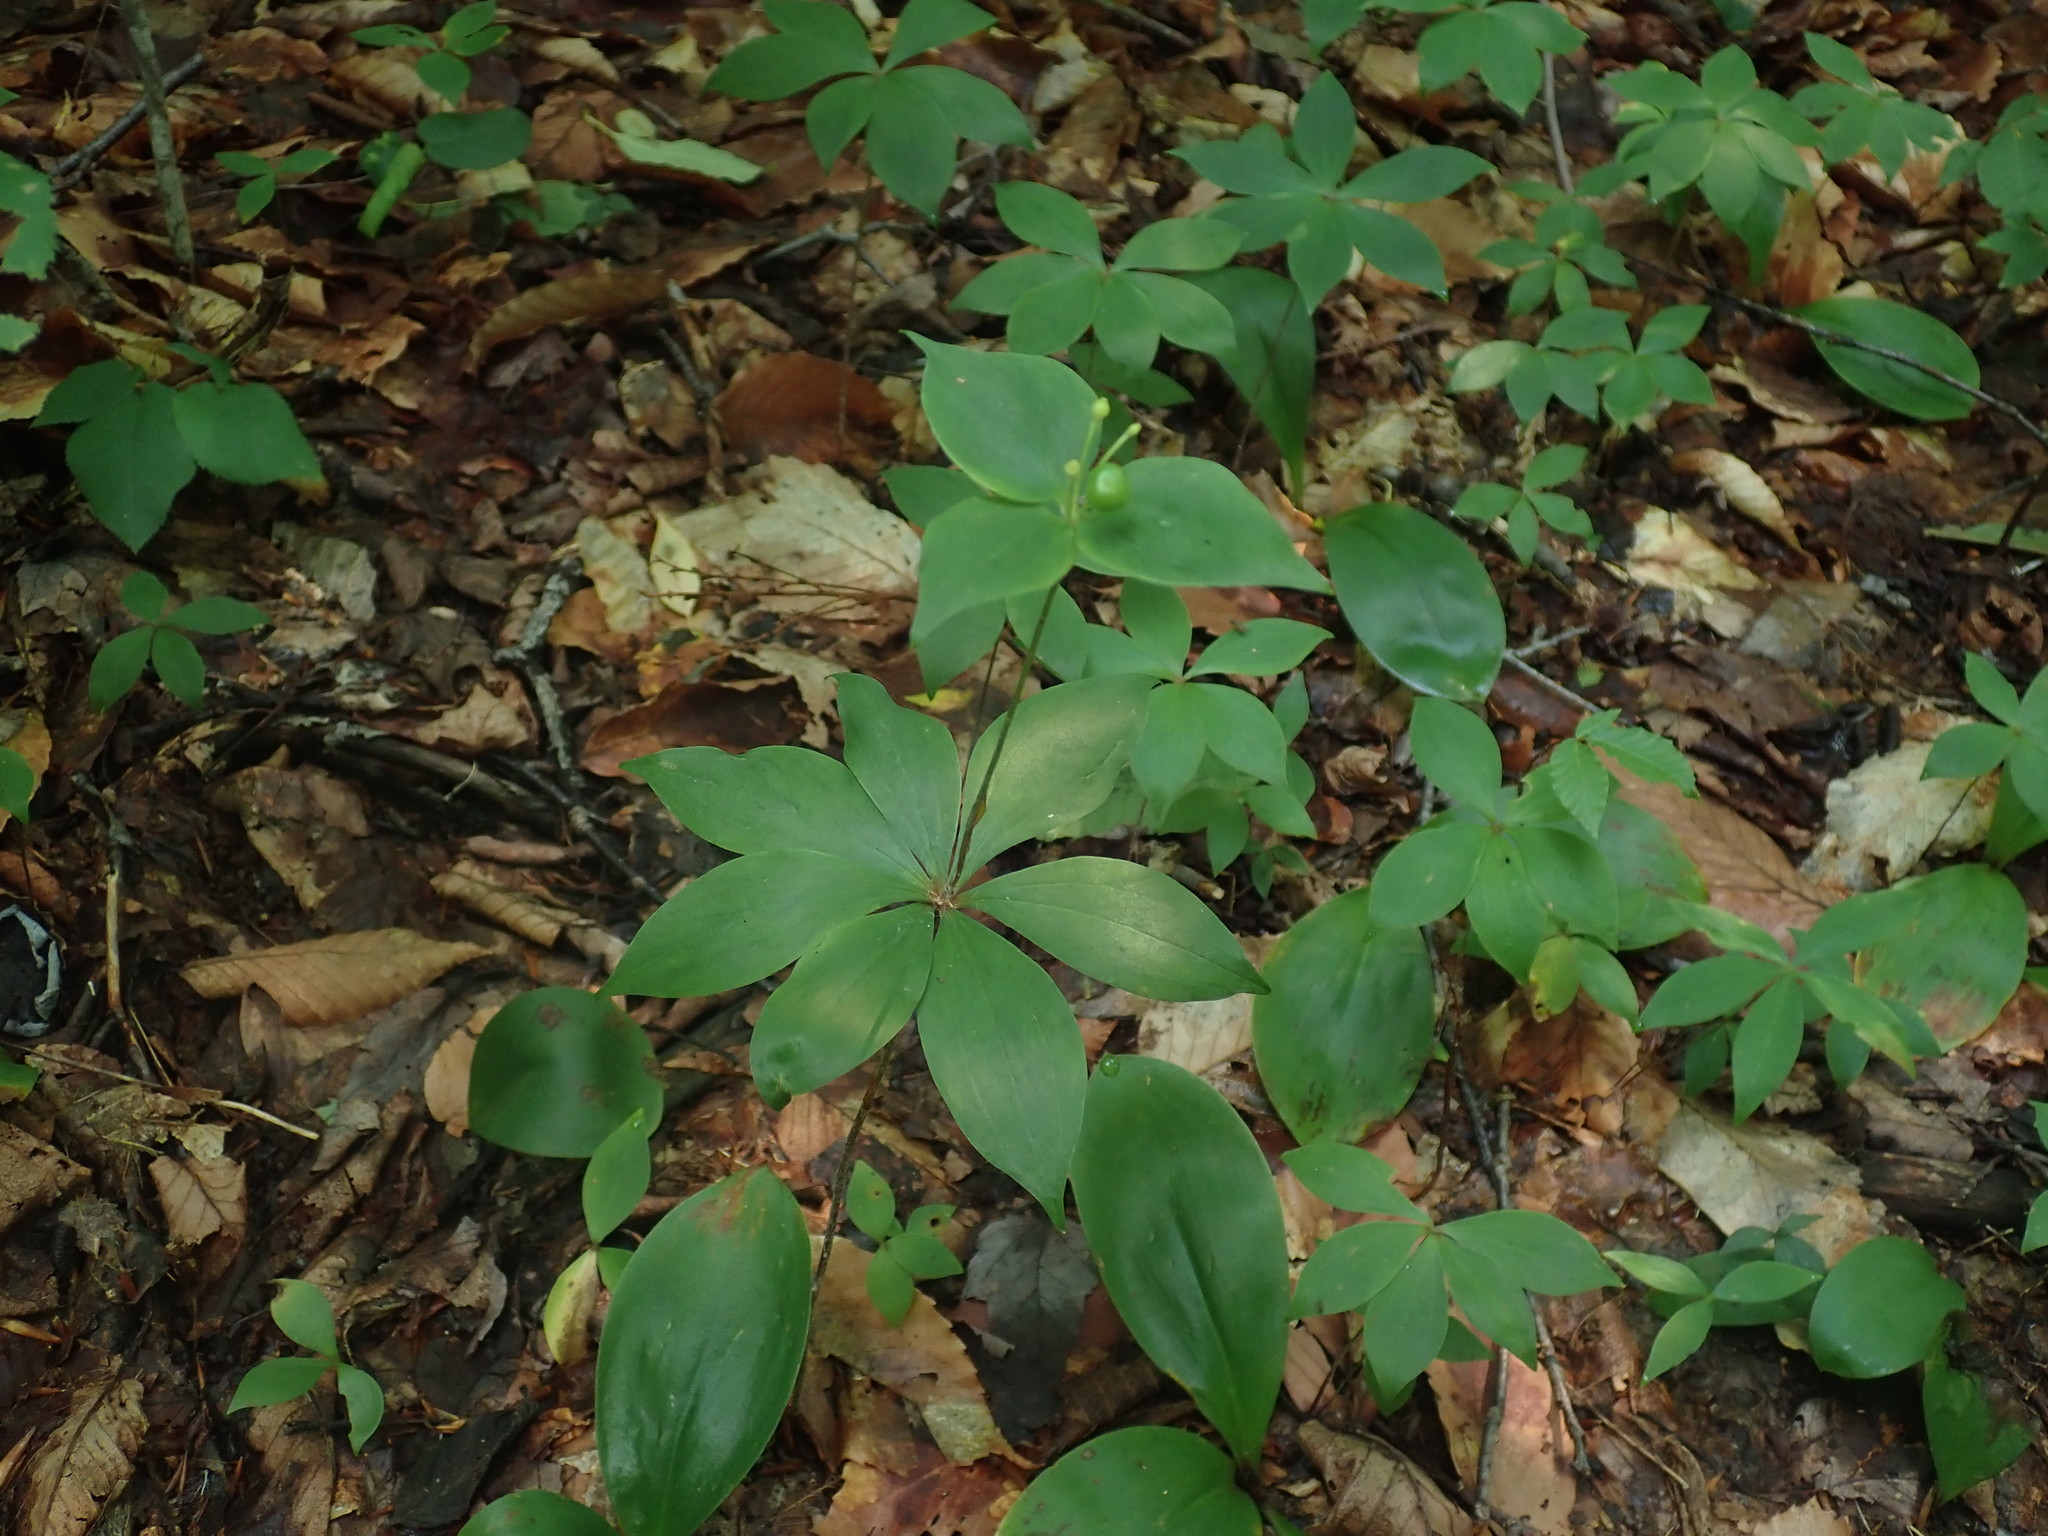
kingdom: Plantae
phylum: Tracheophyta
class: Liliopsida
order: Liliales
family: Liliaceae
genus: Medeola
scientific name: Medeola virginiana
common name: Indian cucumber-root
